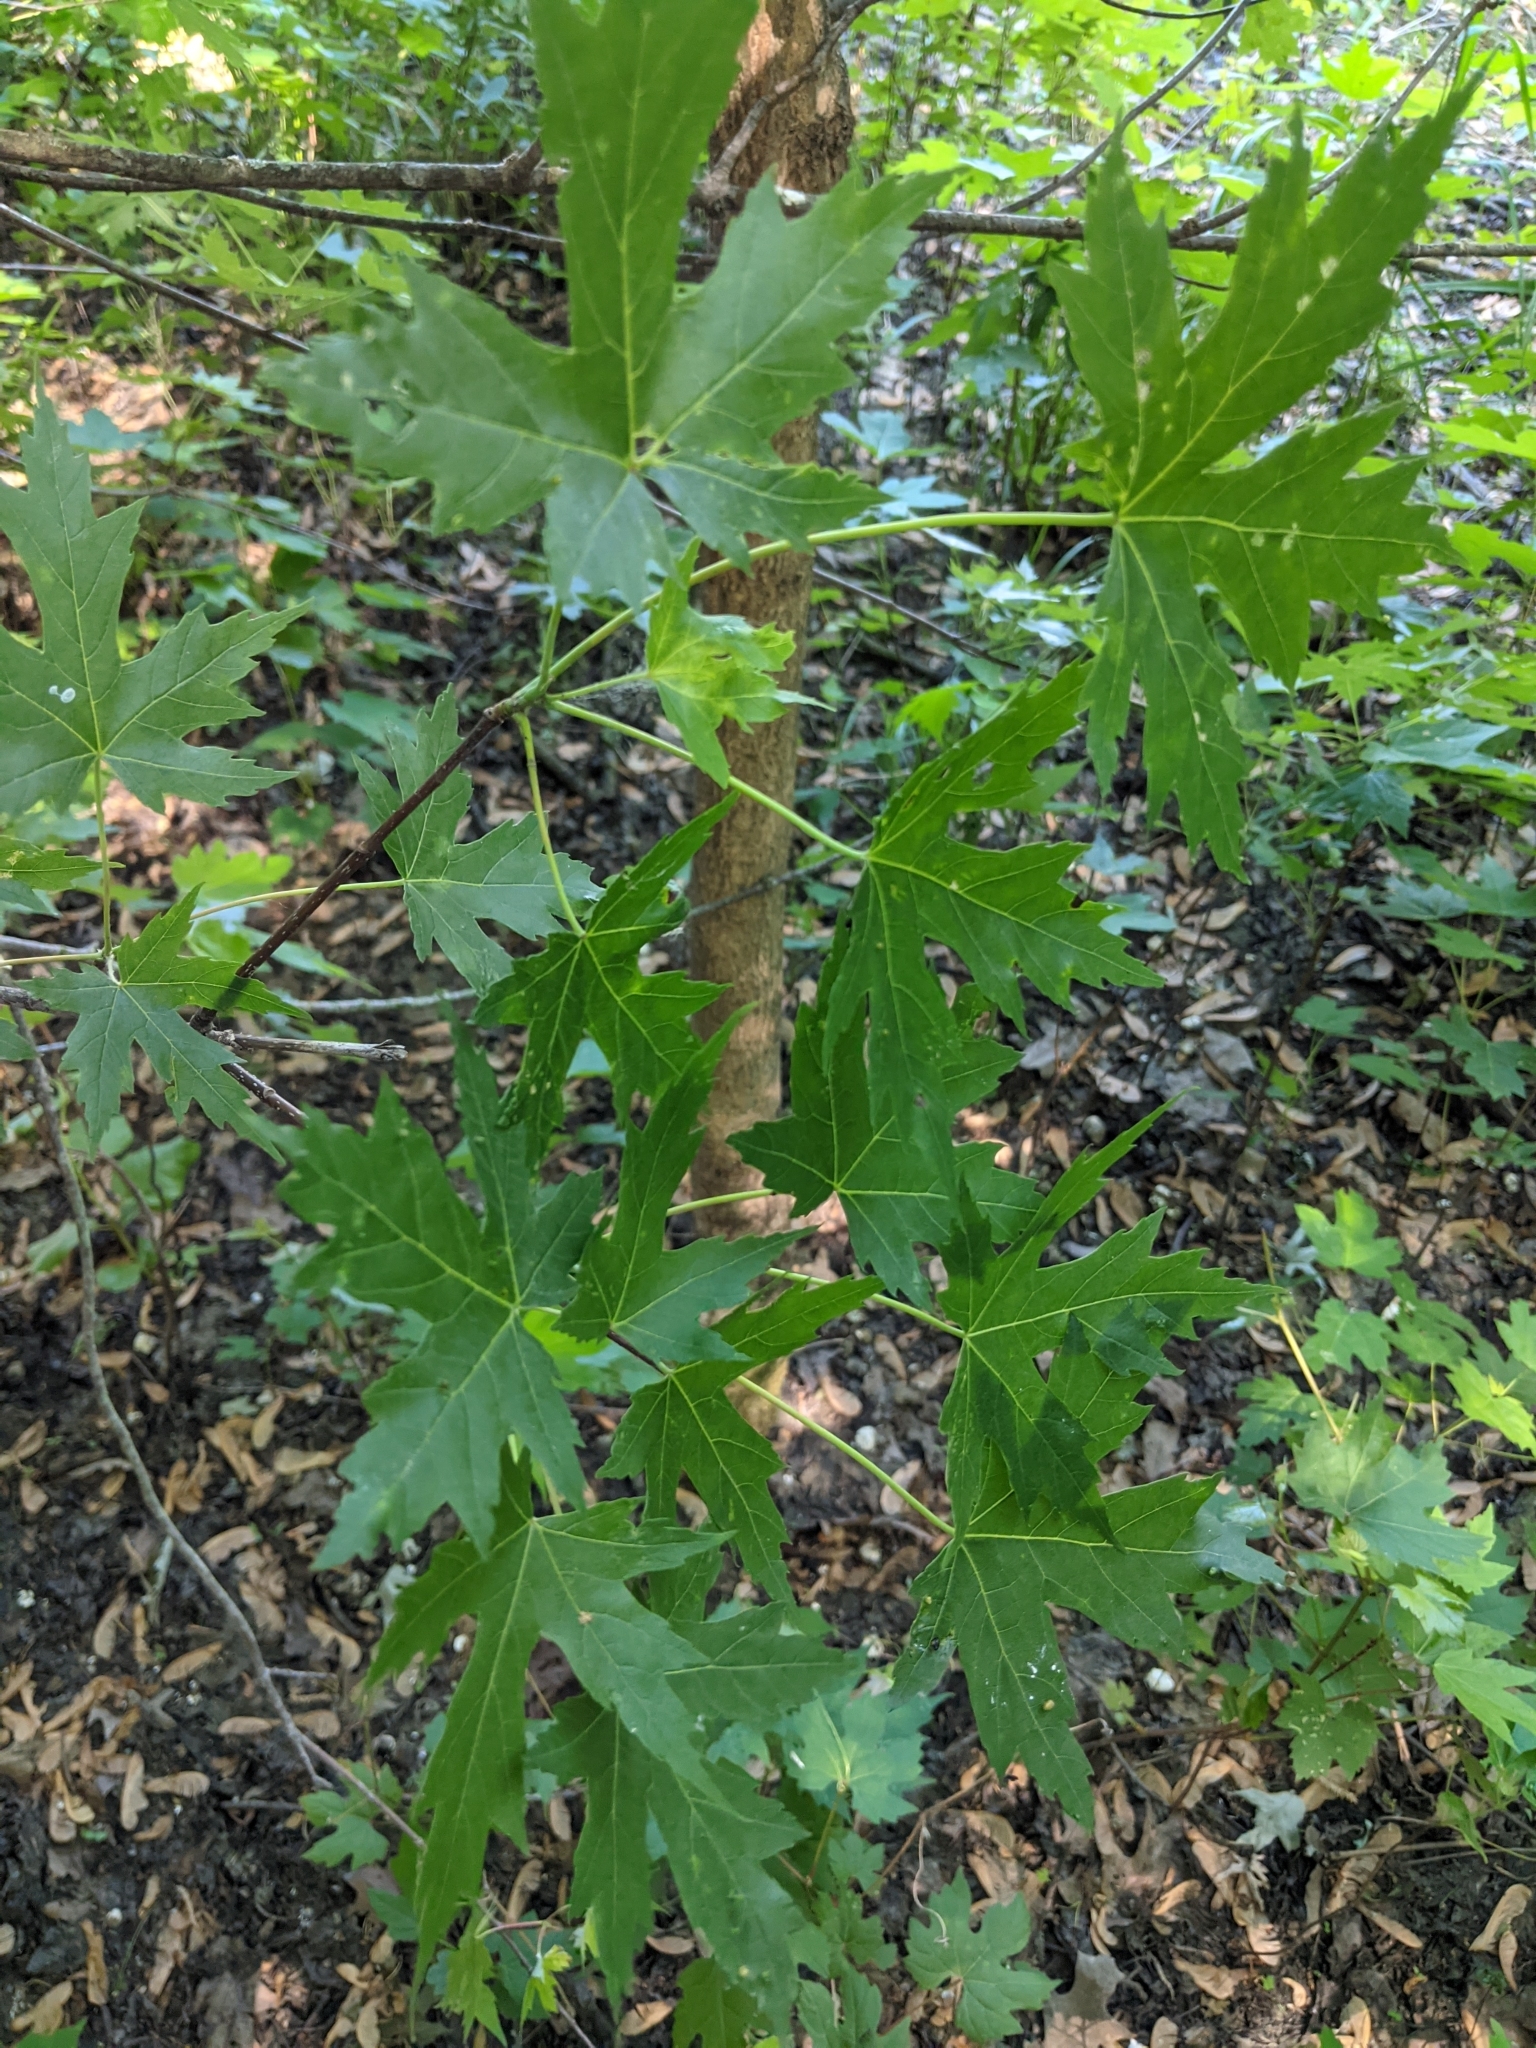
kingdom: Plantae
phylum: Tracheophyta
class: Magnoliopsida
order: Sapindales
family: Sapindaceae
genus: Acer
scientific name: Acer saccharinum
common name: Silver maple
